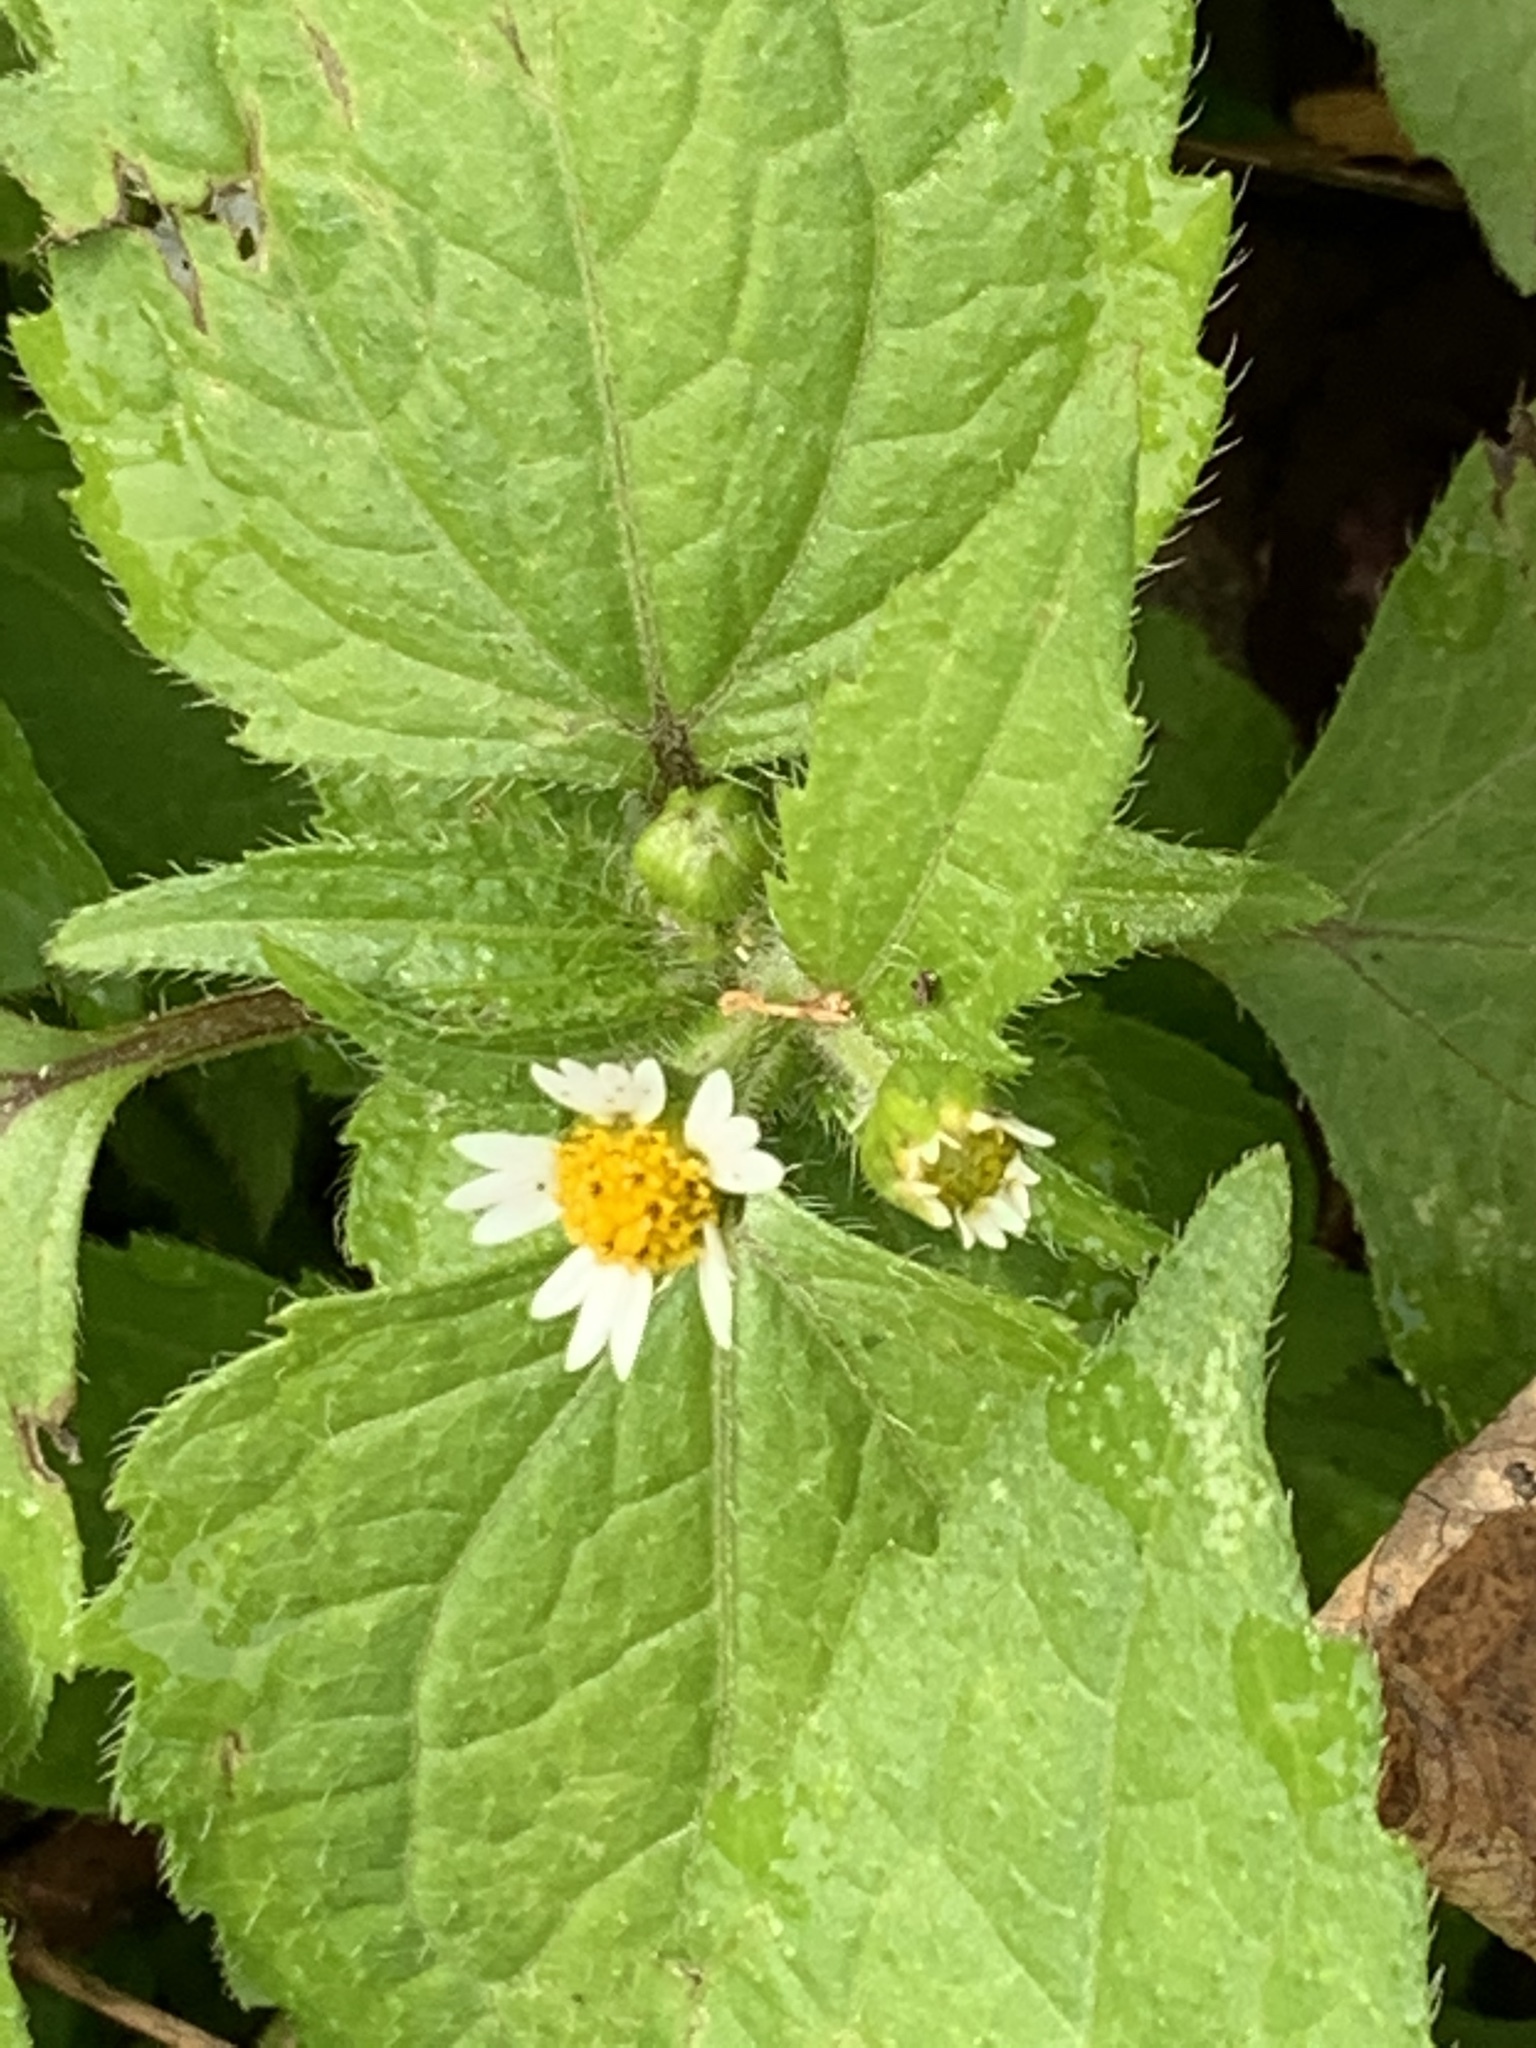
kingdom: Plantae
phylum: Tracheophyta
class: Magnoliopsida
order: Asterales
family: Asteraceae
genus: Galinsoga
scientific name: Galinsoga quadriradiata
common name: Shaggy soldier
